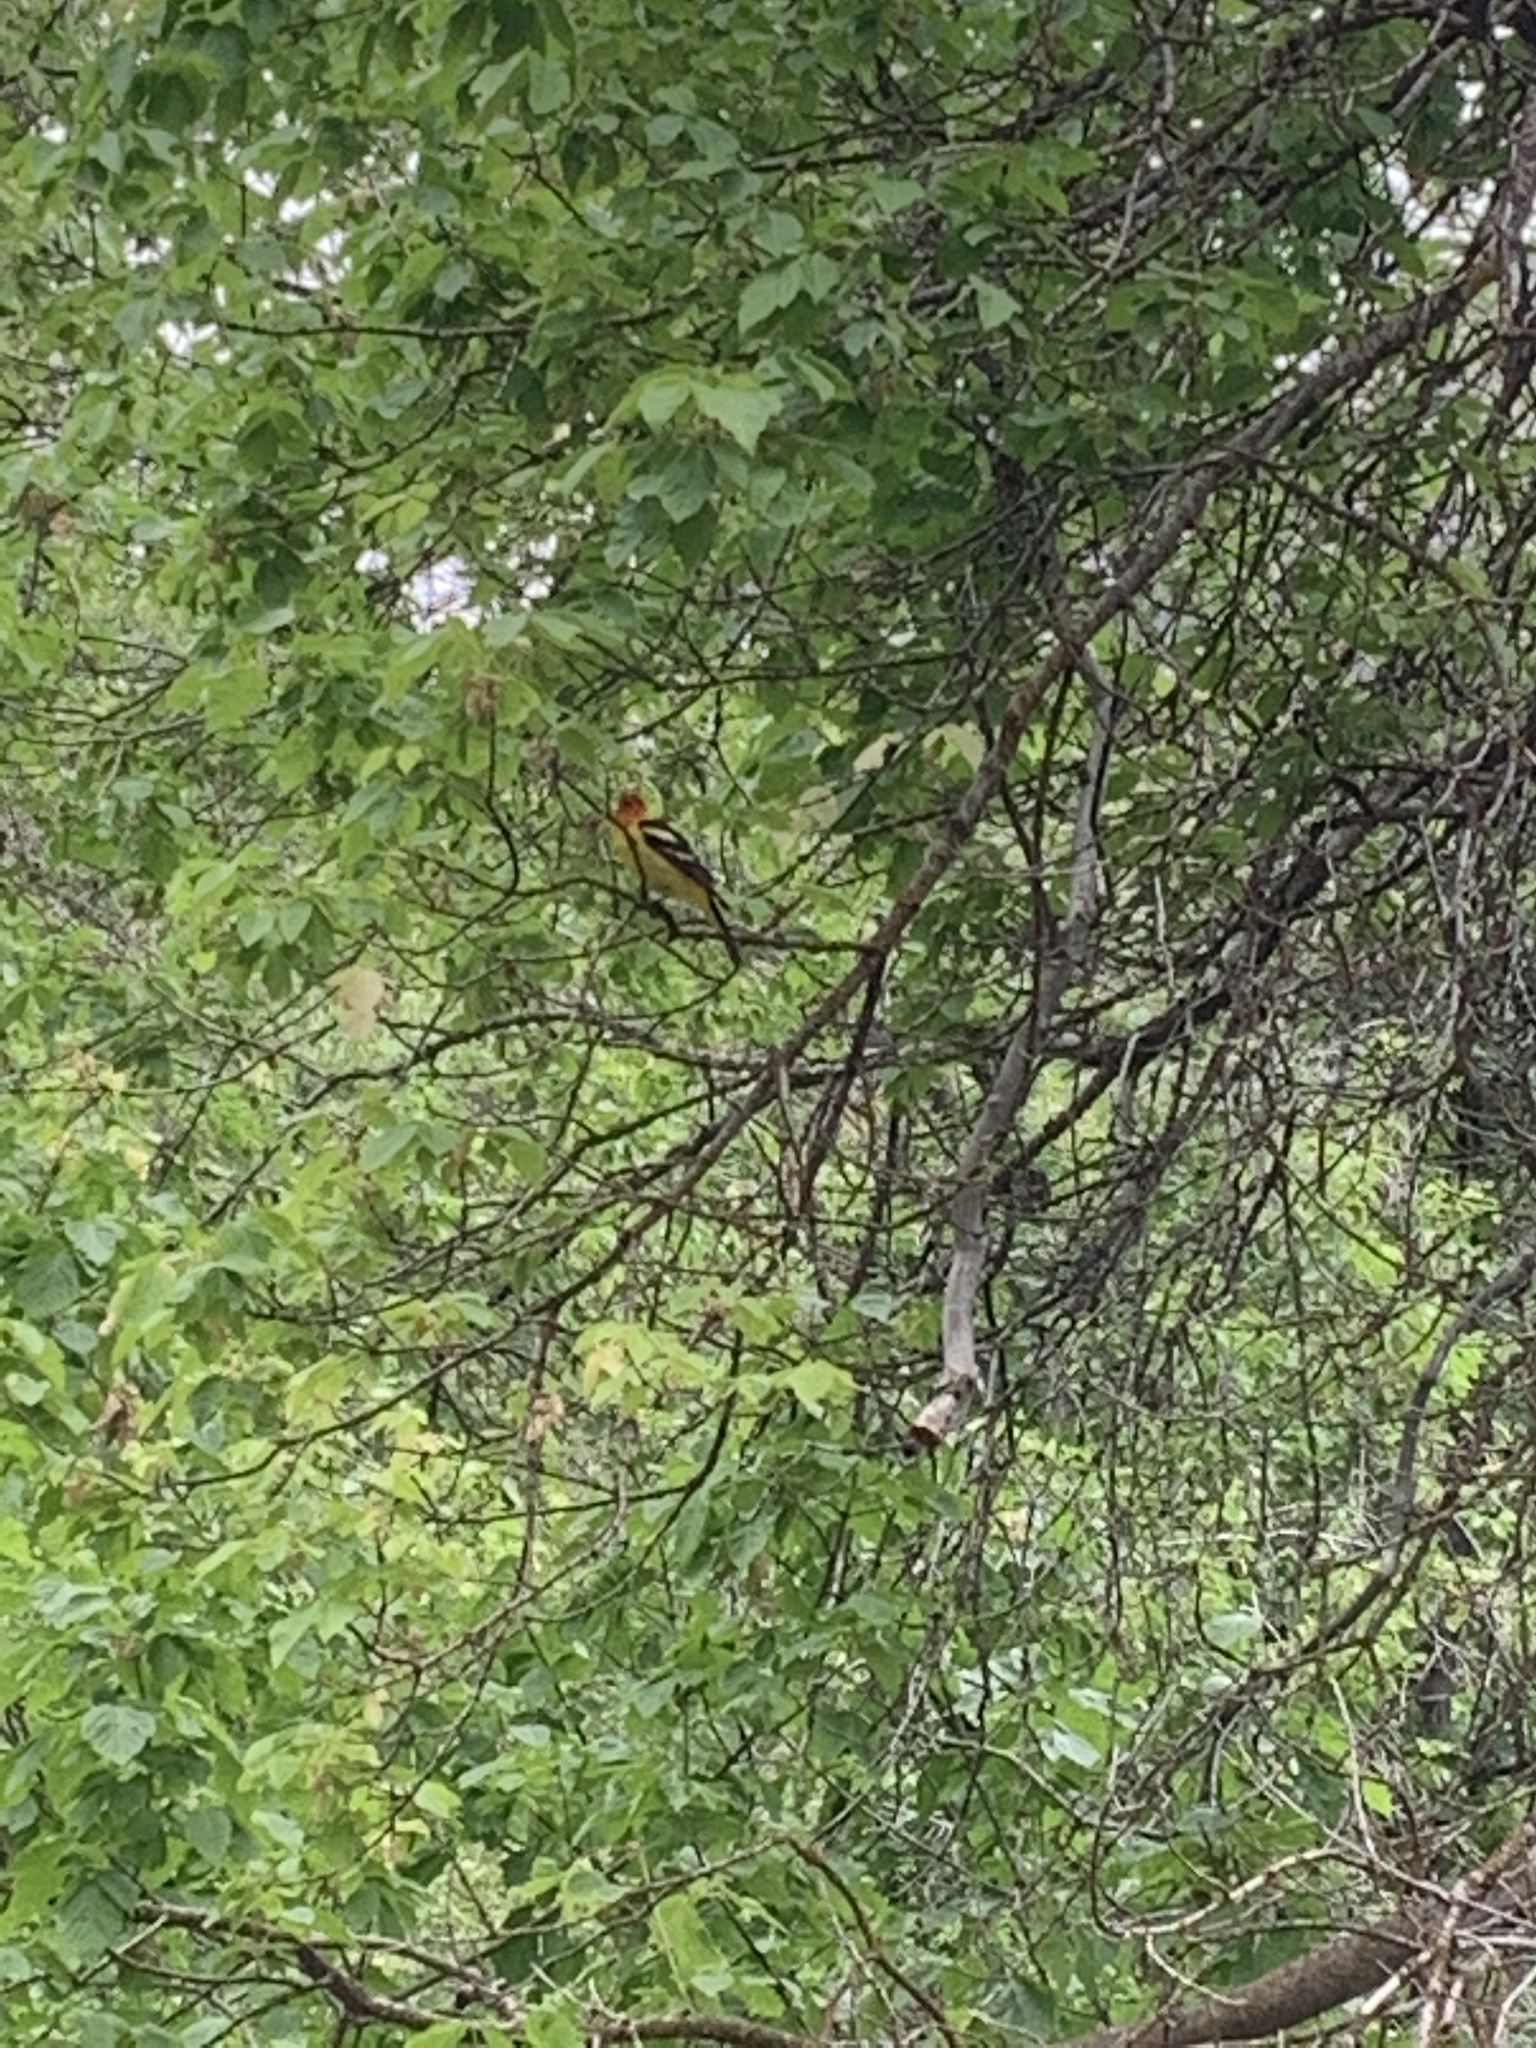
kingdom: Animalia
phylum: Chordata
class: Aves
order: Passeriformes
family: Cardinalidae
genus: Piranga
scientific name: Piranga ludoviciana
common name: Western tanager
